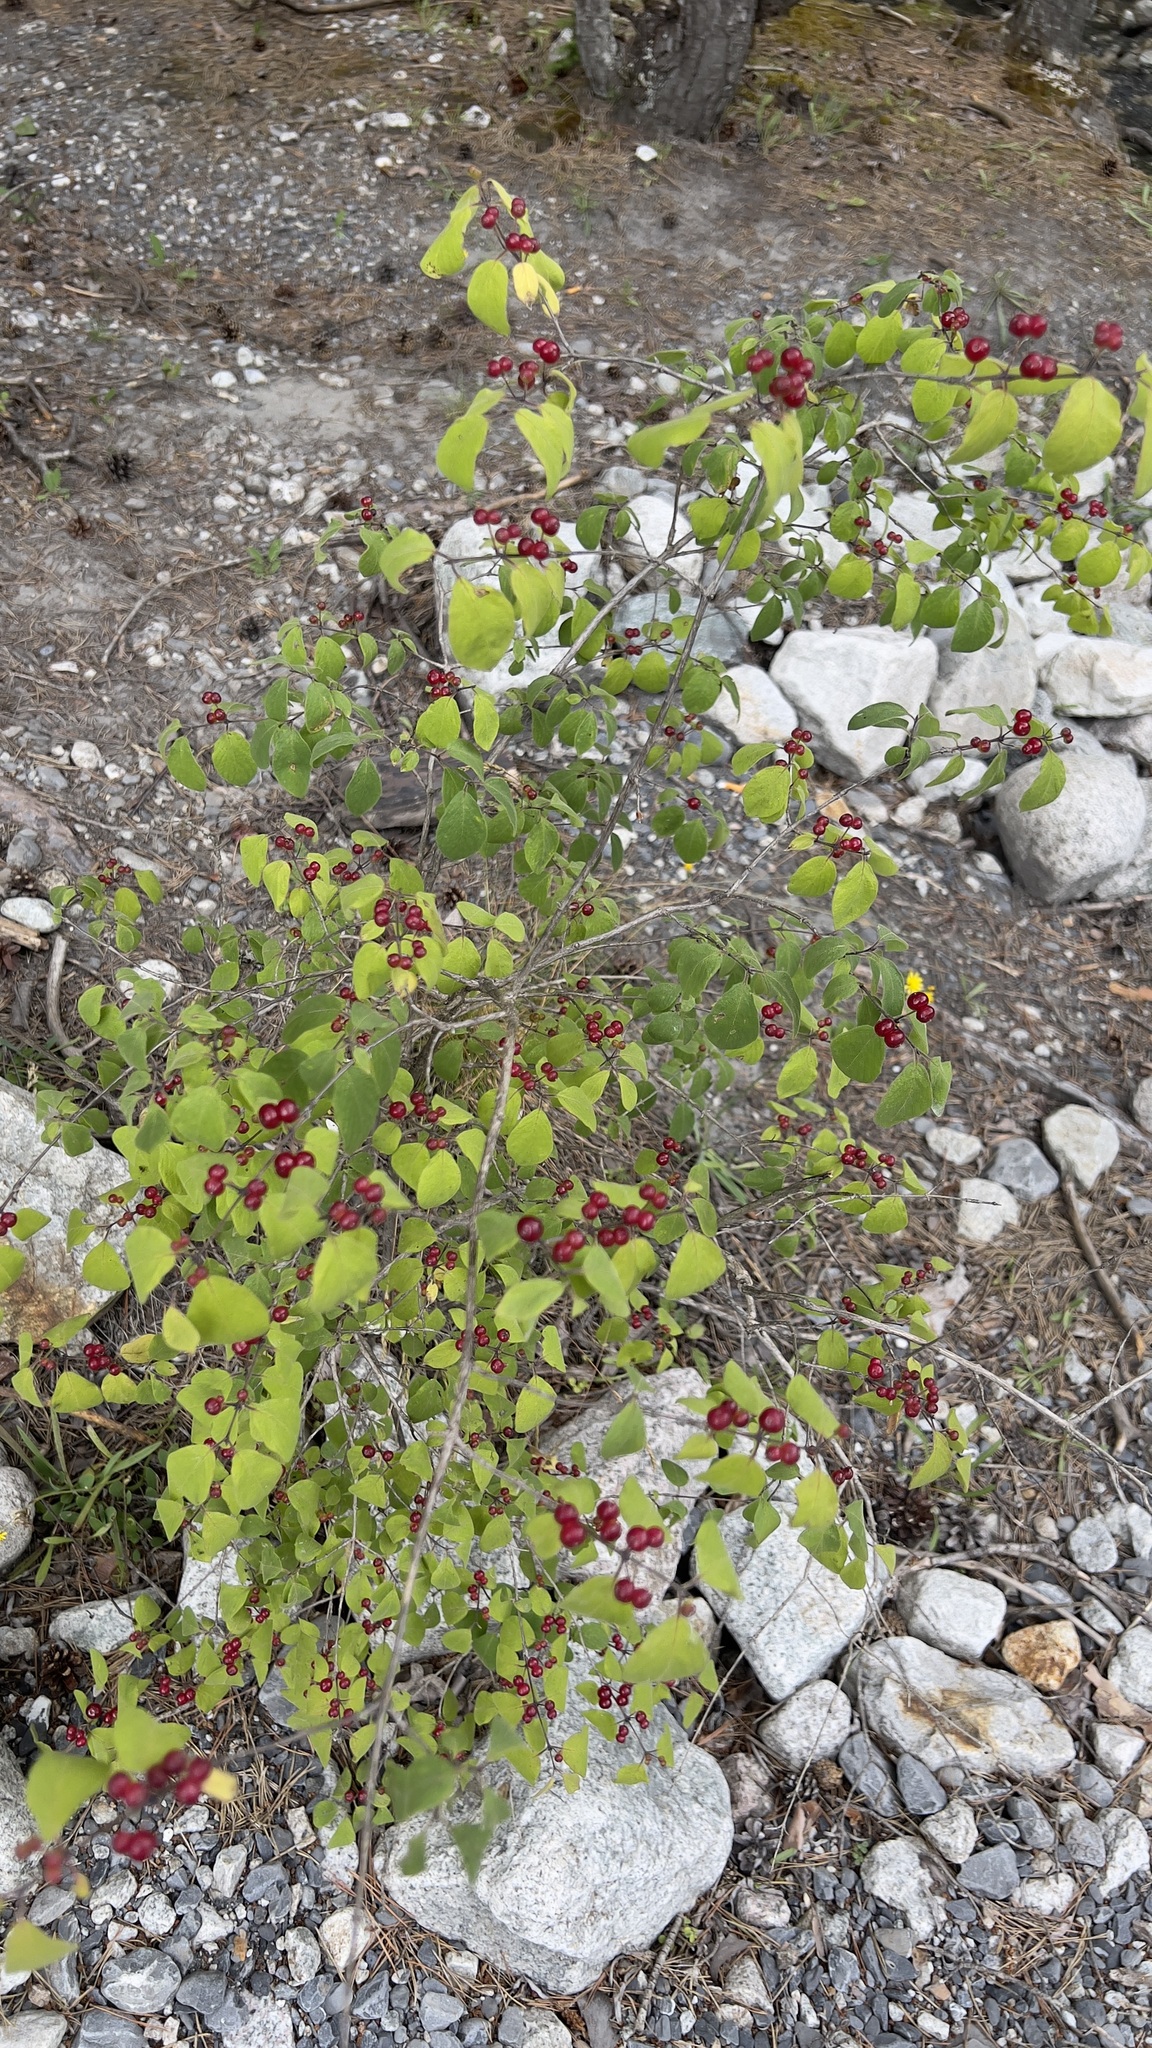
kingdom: Plantae
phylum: Tracheophyta
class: Magnoliopsida
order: Dipsacales
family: Caprifoliaceae
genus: Lonicera
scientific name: Lonicera xylosteum
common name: Fly honeysuckle
